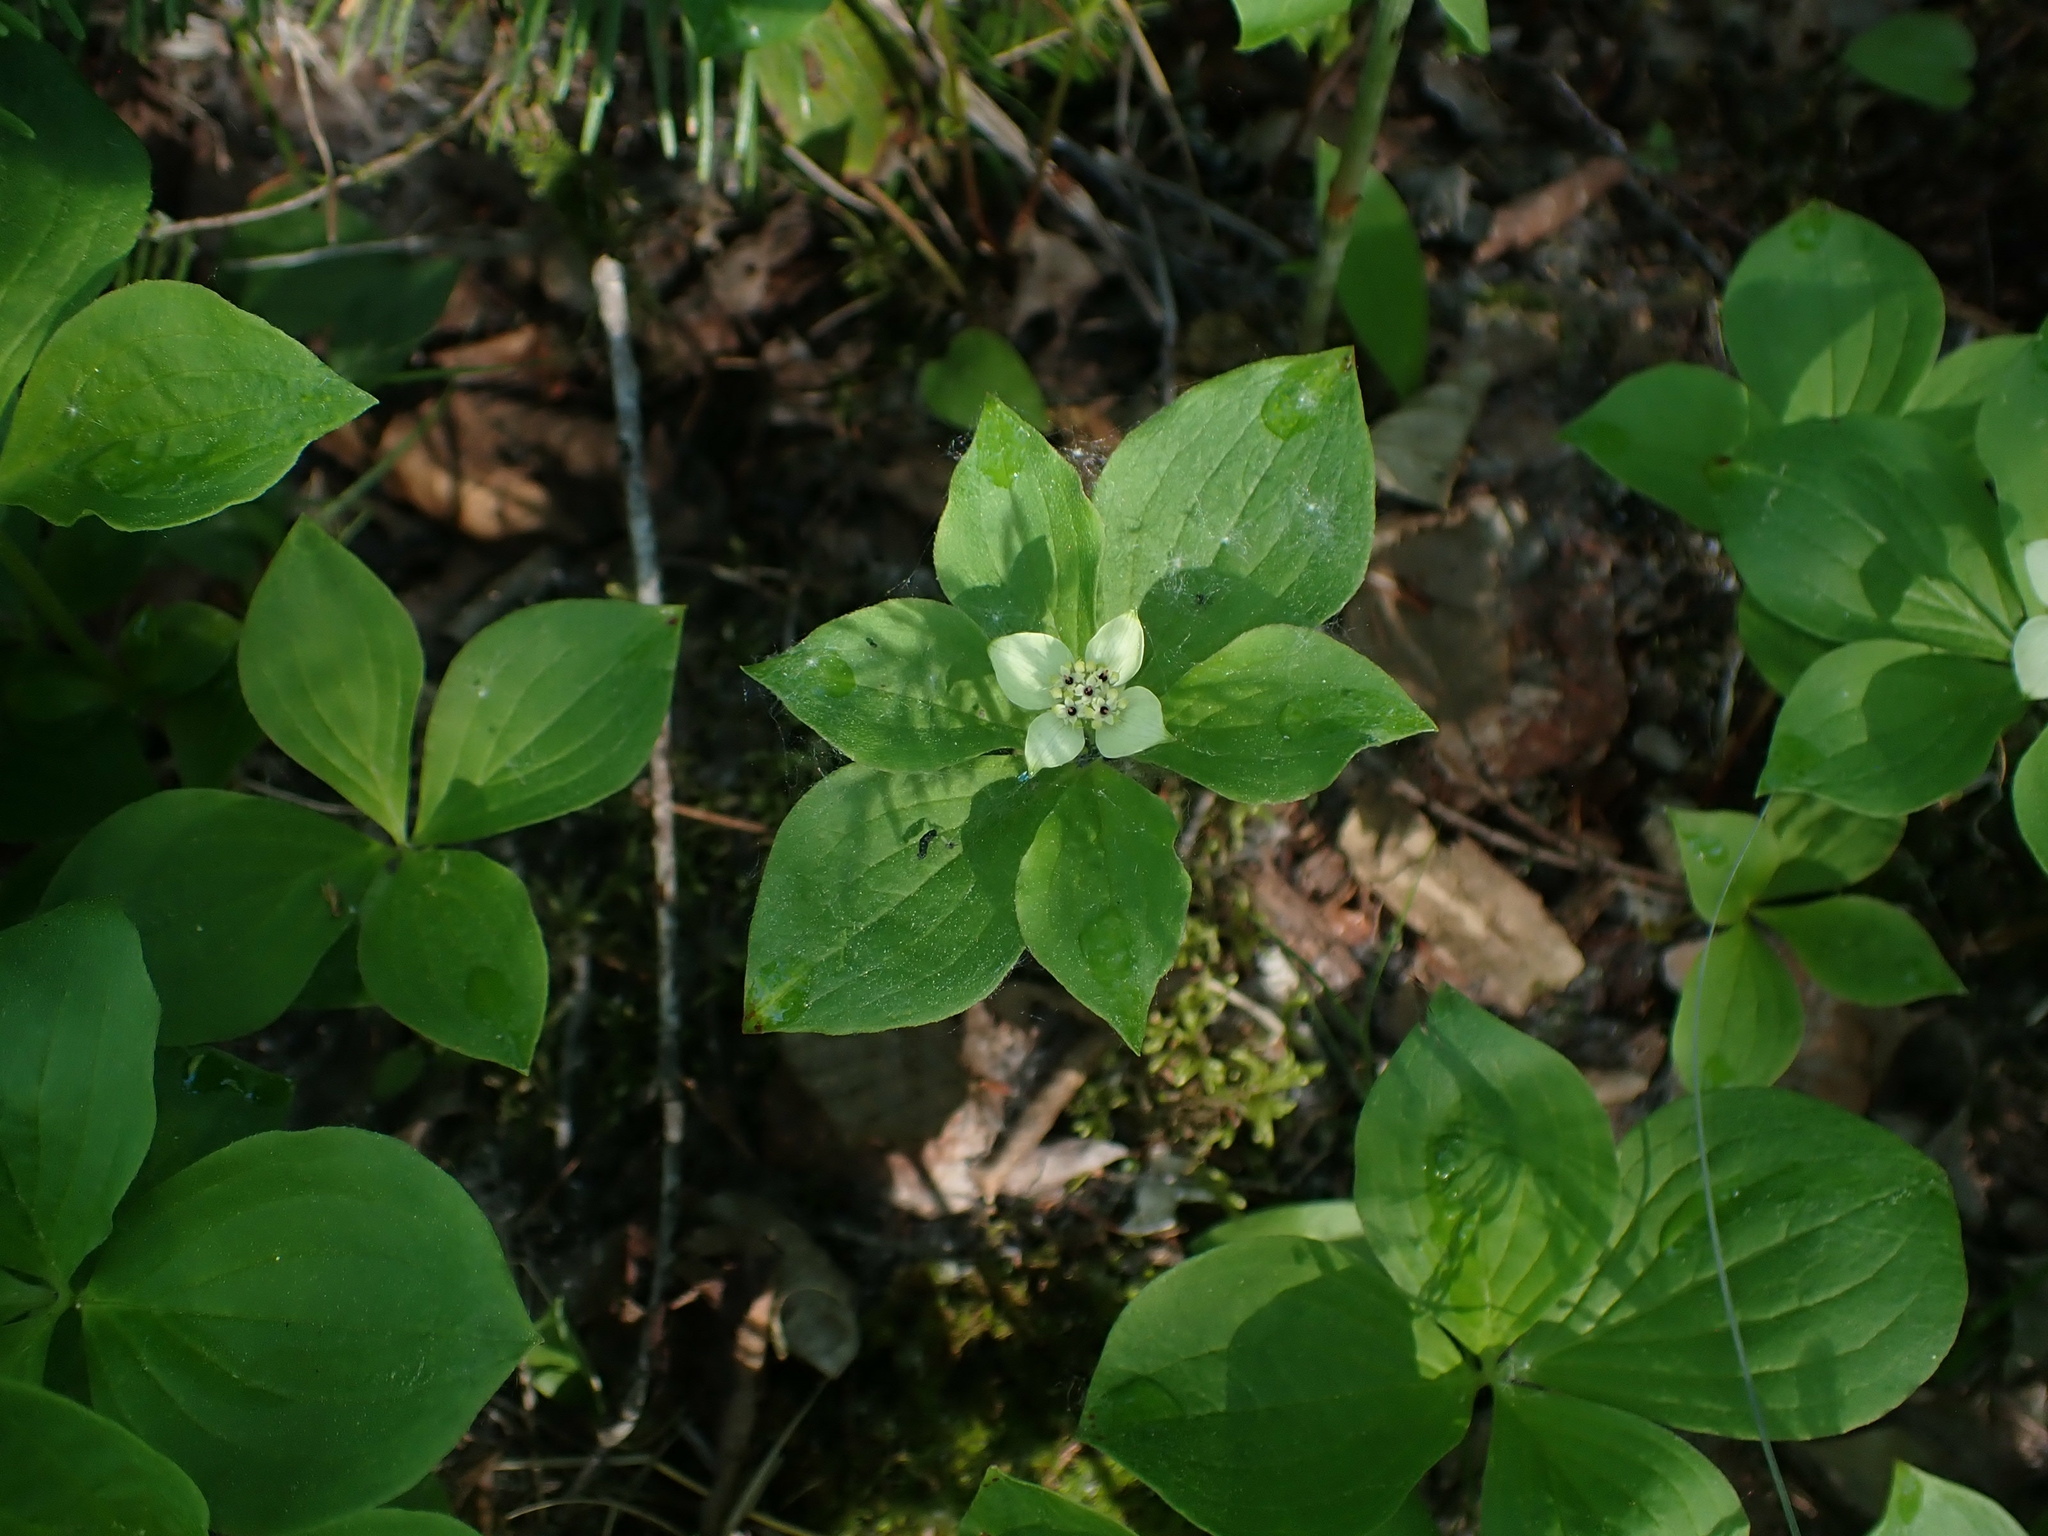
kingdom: Plantae
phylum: Tracheophyta
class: Magnoliopsida
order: Cornales
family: Cornaceae
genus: Cornus
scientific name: Cornus canadensis
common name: Creeping dogwood
